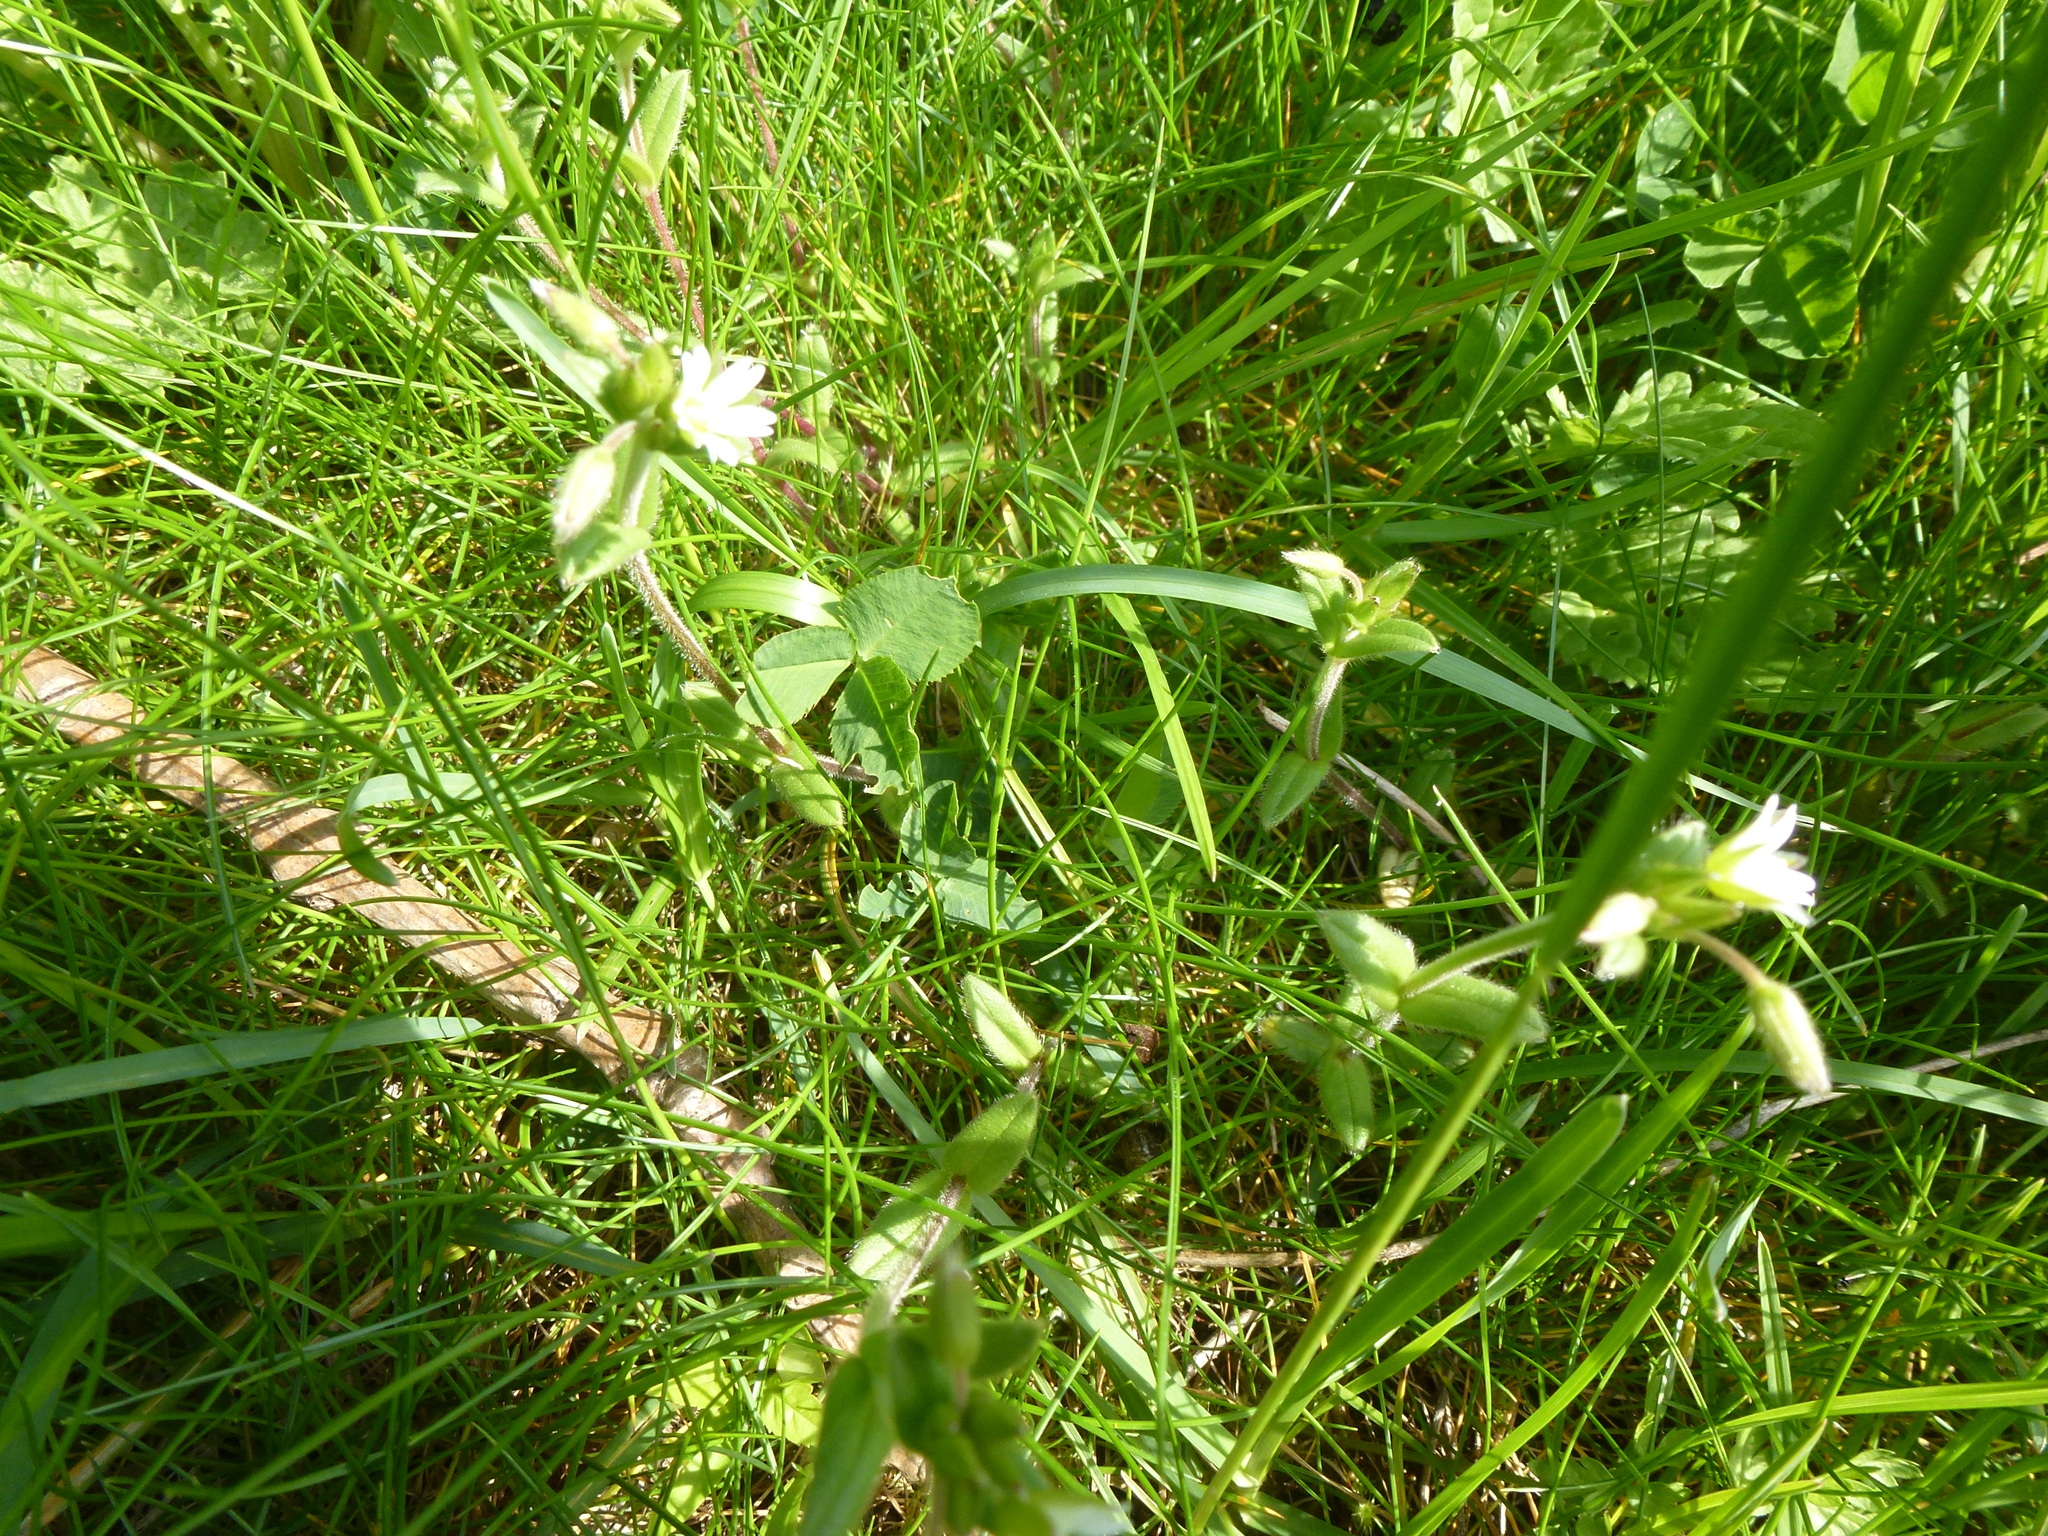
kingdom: Plantae
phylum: Tracheophyta
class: Magnoliopsida
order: Caryophyllales
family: Caryophyllaceae
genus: Cerastium
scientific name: Cerastium fontanum
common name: Common mouse-ear
